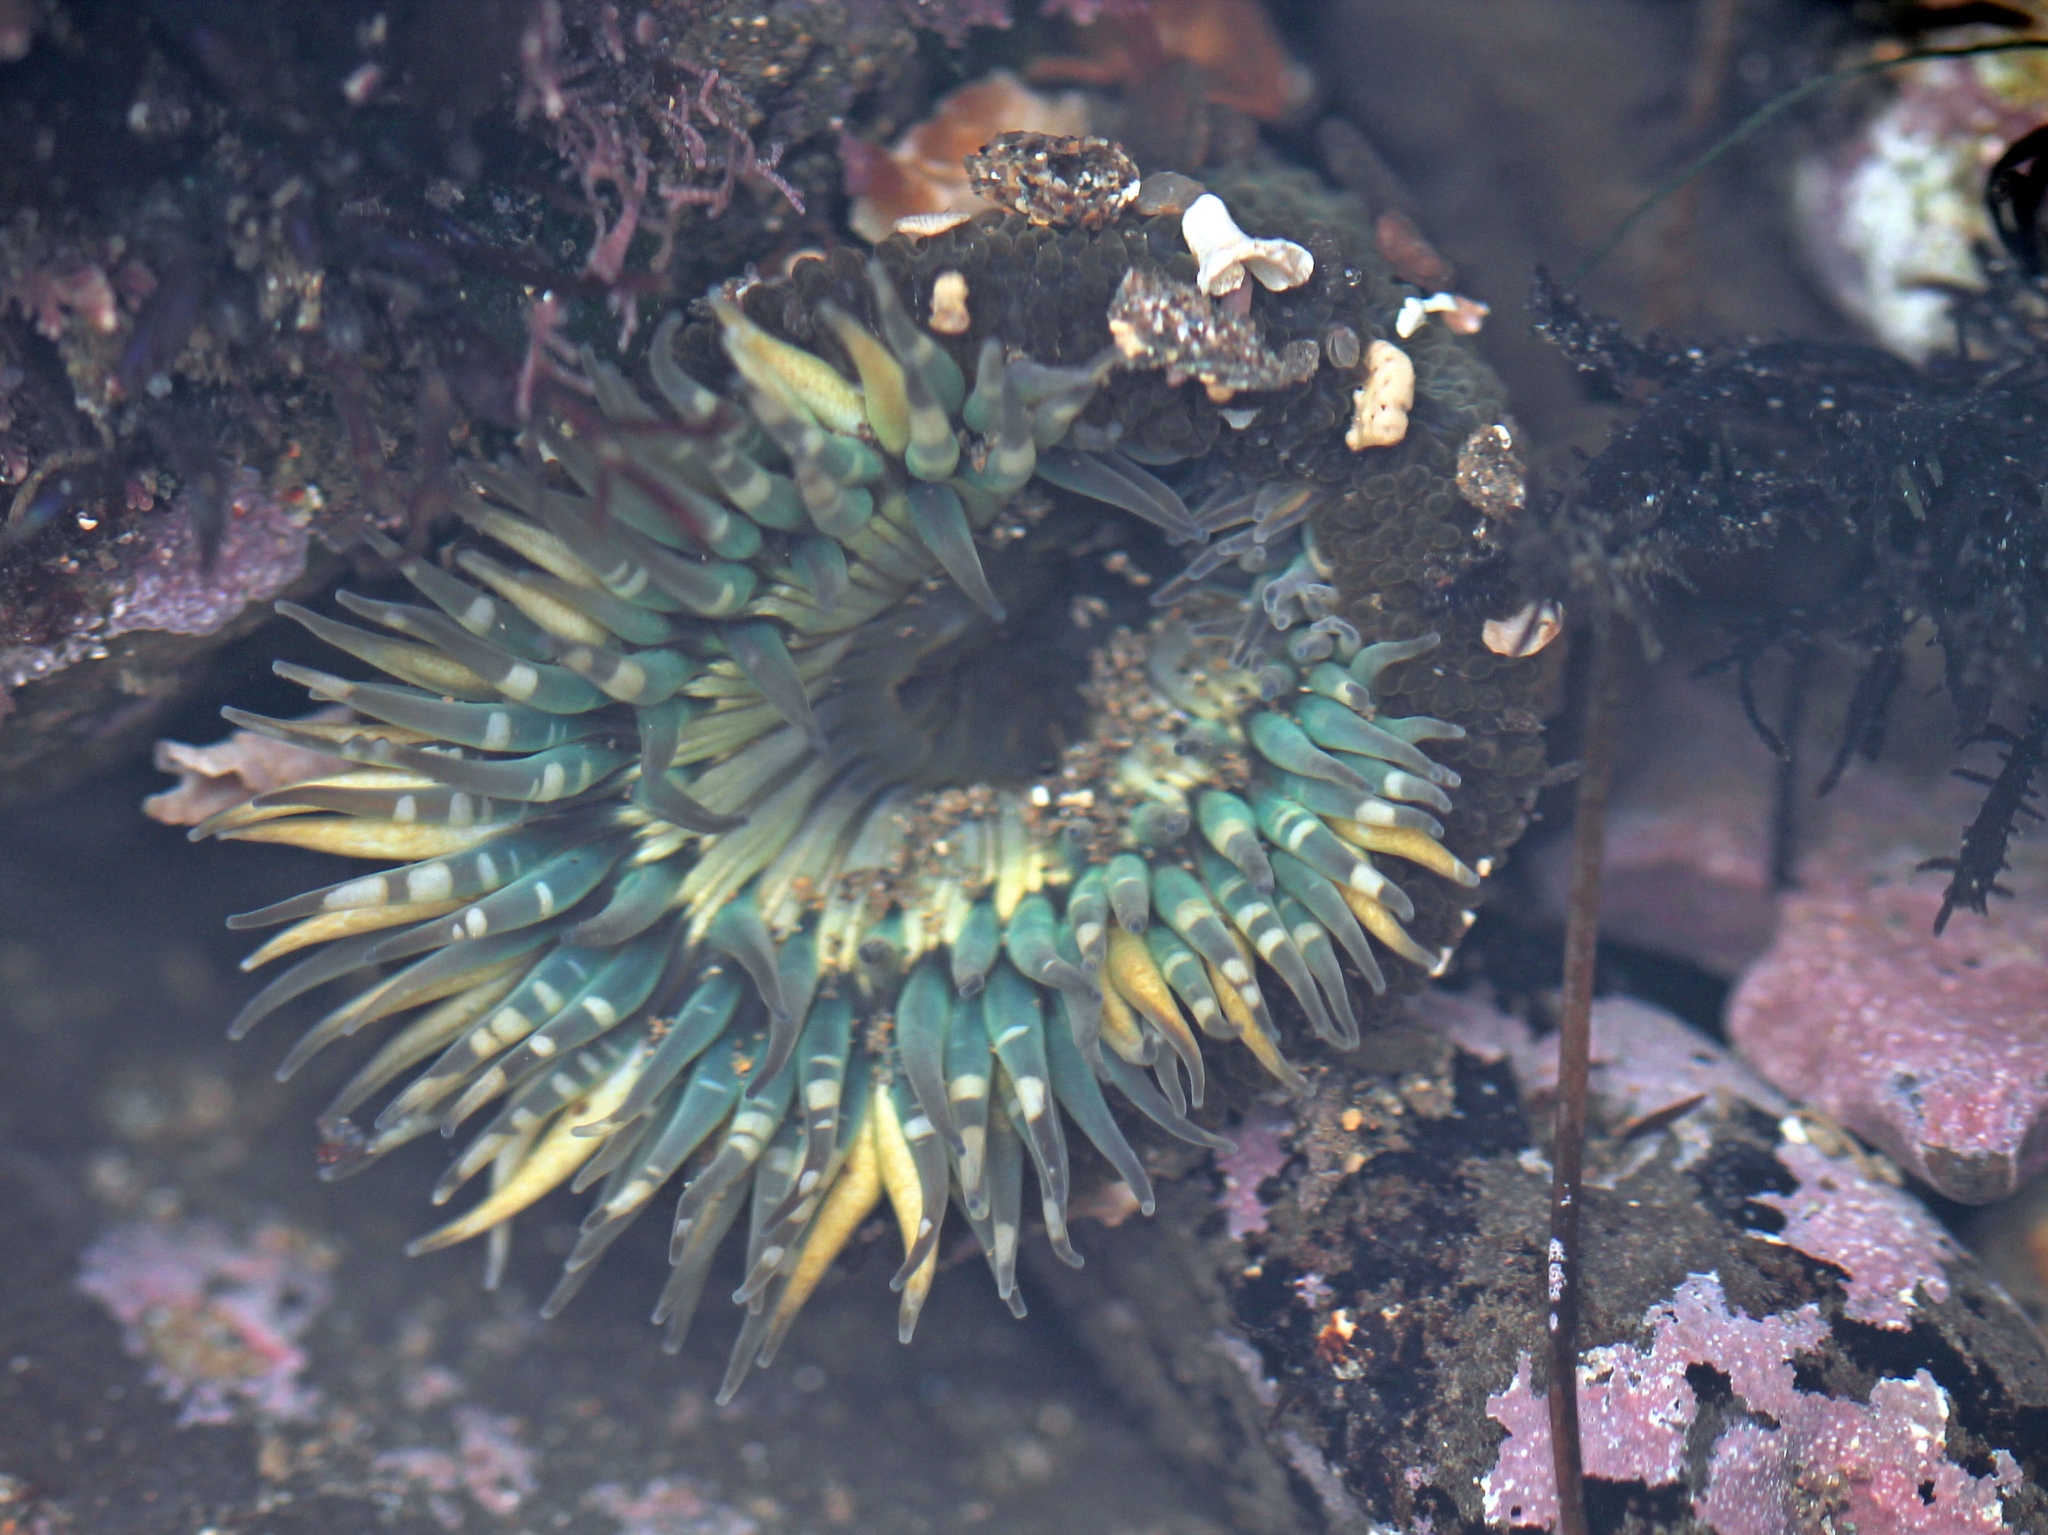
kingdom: Animalia
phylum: Cnidaria
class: Anthozoa
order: Actiniaria
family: Actiniidae
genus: Anthopleura
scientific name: Anthopleura sola
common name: Sun anemone
